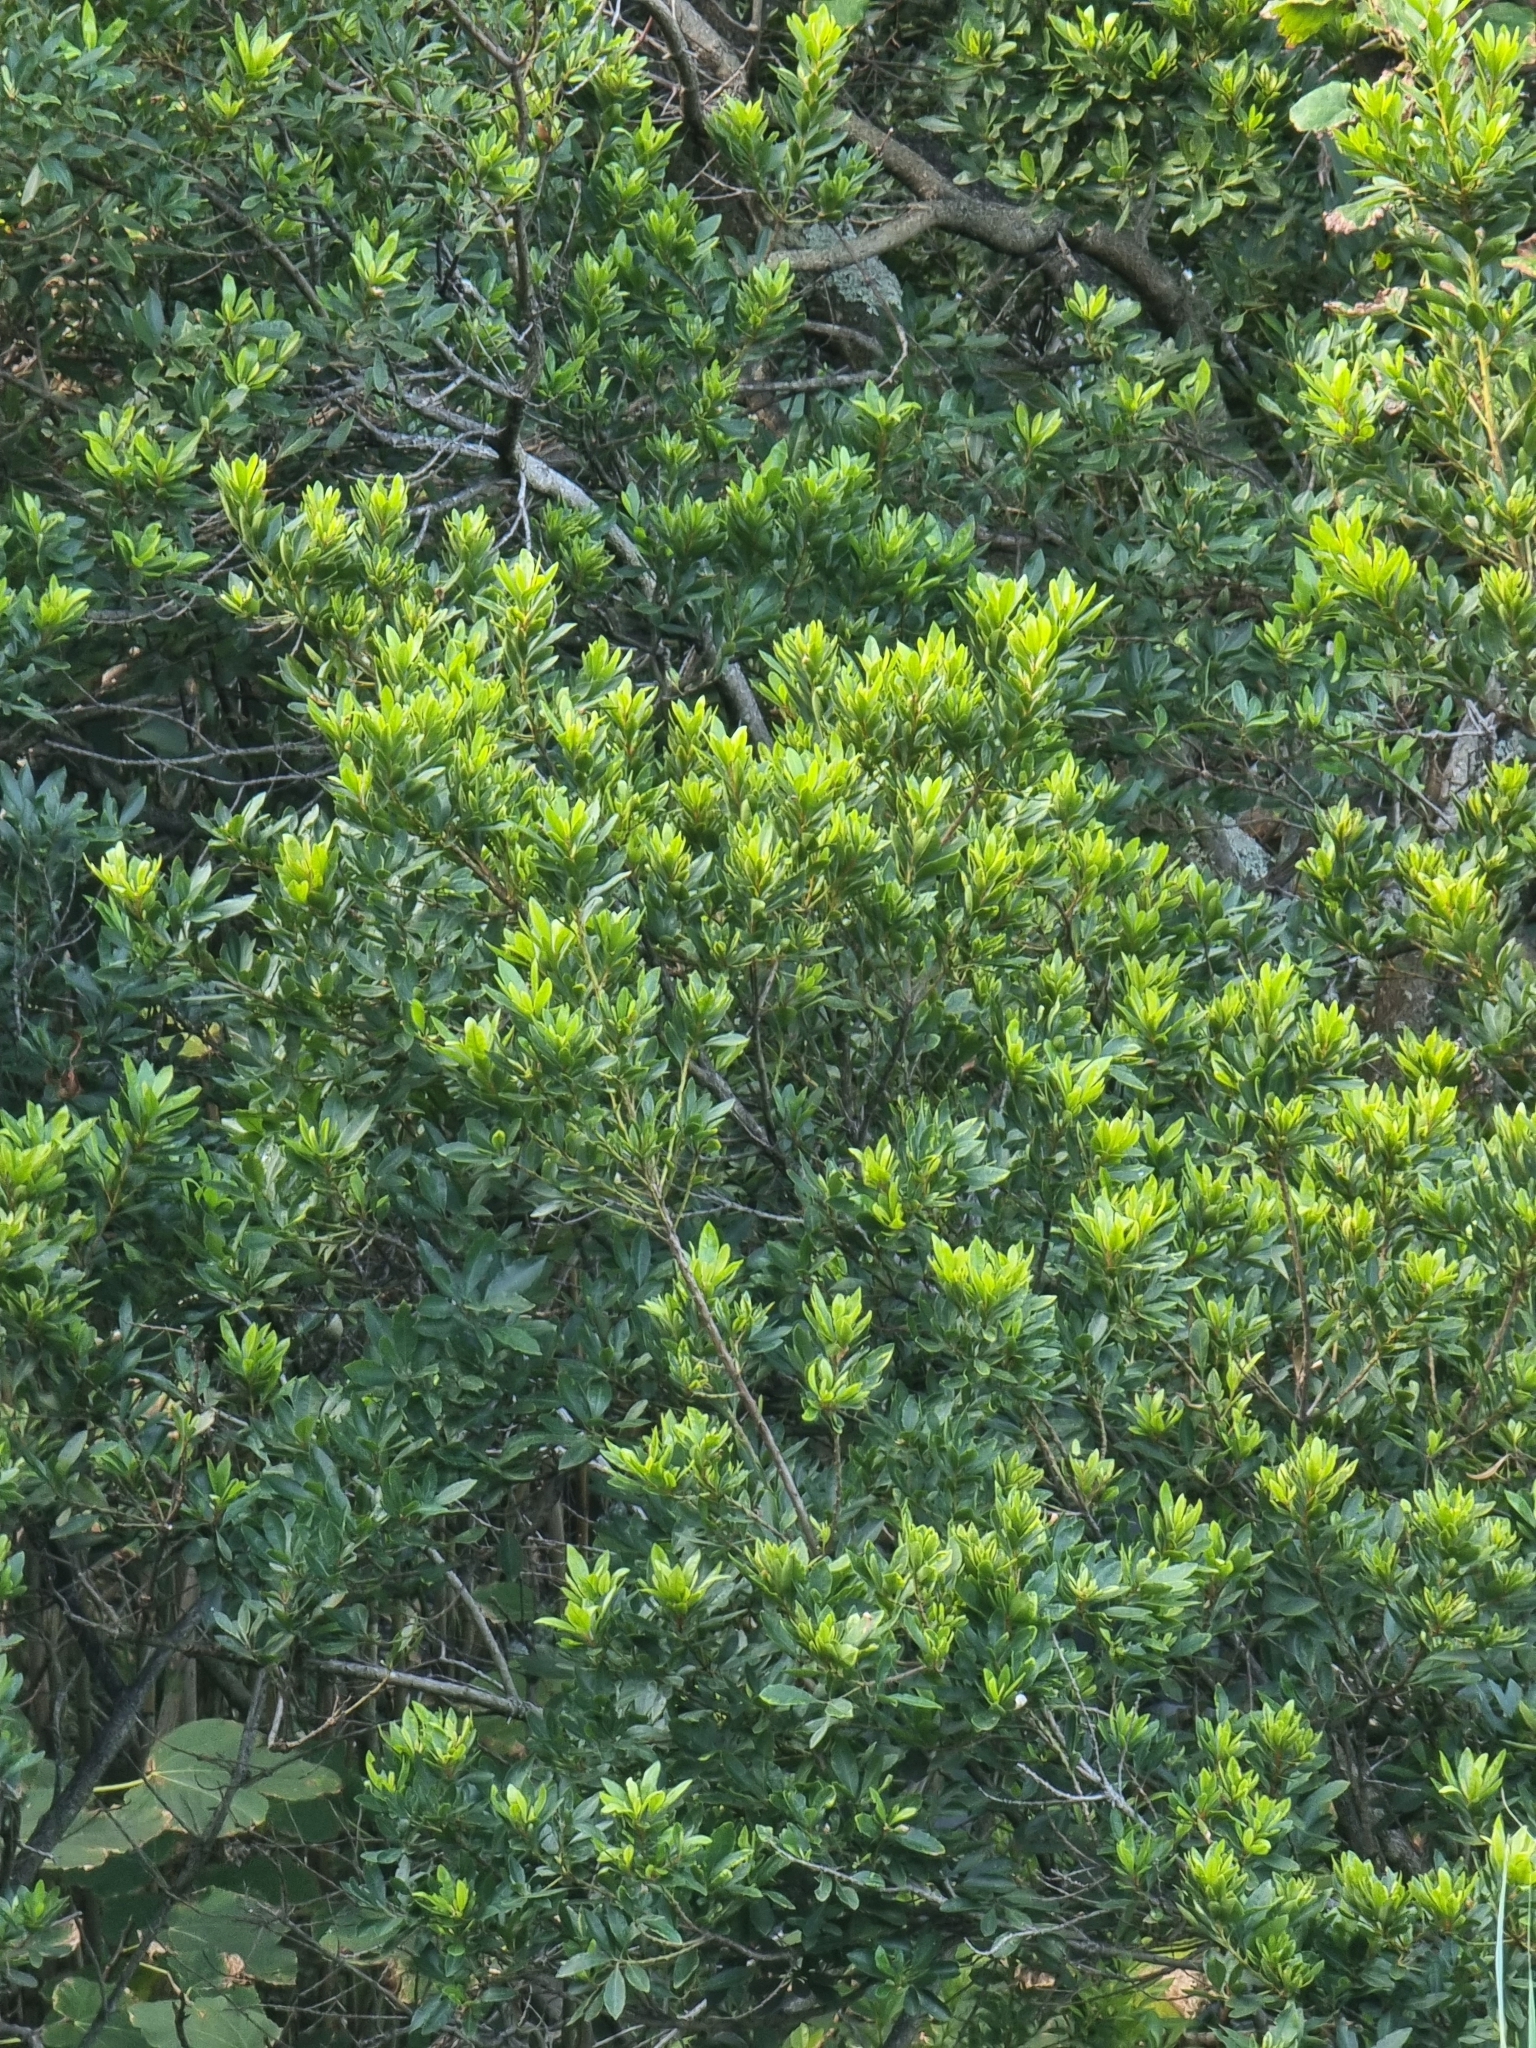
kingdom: Plantae
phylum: Tracheophyta
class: Magnoliopsida
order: Fagales
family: Myricaceae
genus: Morella
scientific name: Morella faya
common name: Firetree
